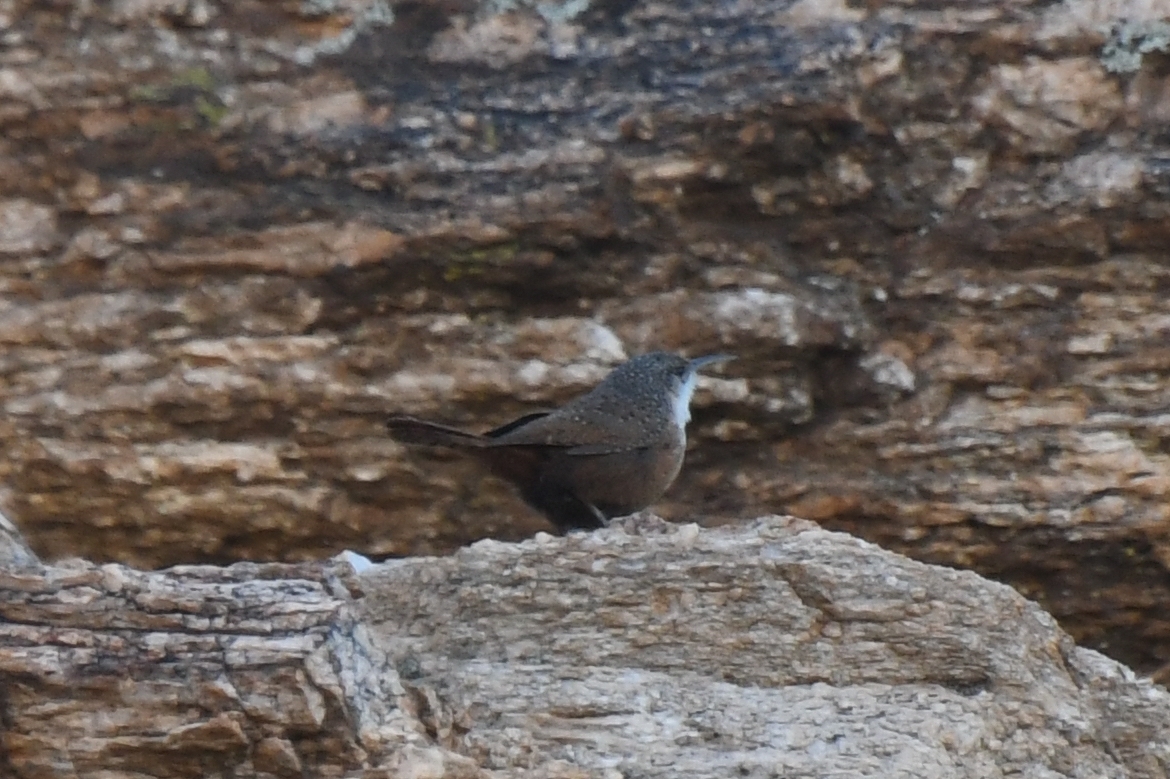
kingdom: Animalia
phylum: Chordata
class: Aves
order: Passeriformes
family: Troglodytidae
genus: Catherpes
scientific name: Catherpes mexicanus
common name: Canyon wren
